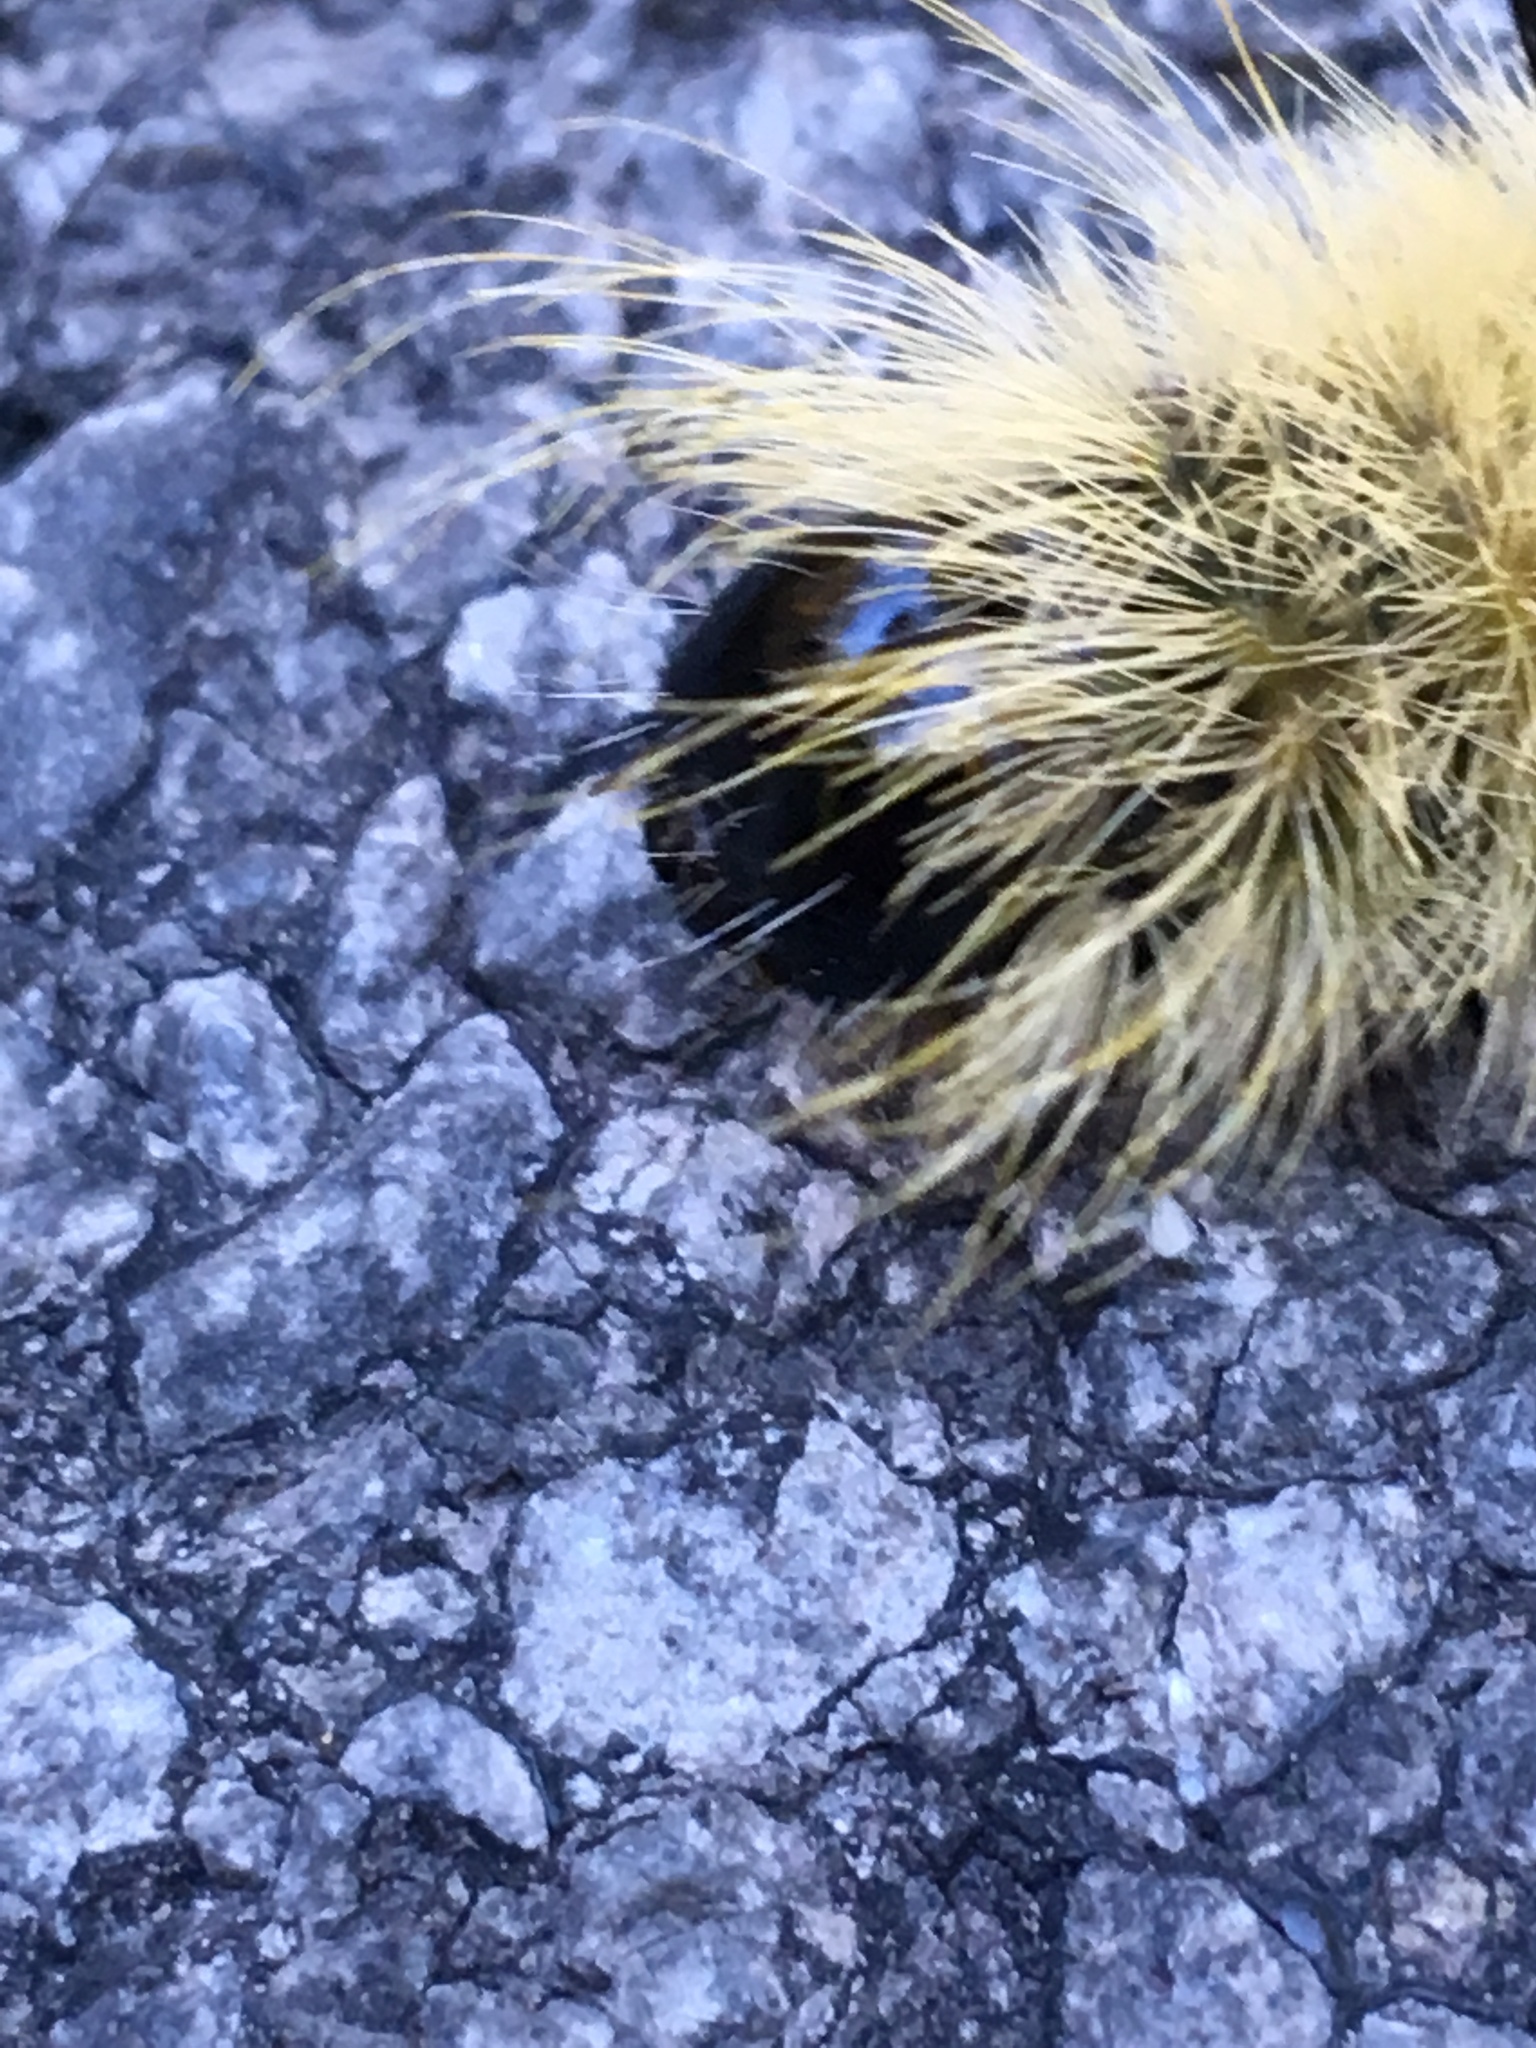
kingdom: Animalia
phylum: Arthropoda
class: Insecta
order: Lepidoptera
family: Noctuidae
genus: Acronicta
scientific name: Acronicta americana
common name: American dagger
